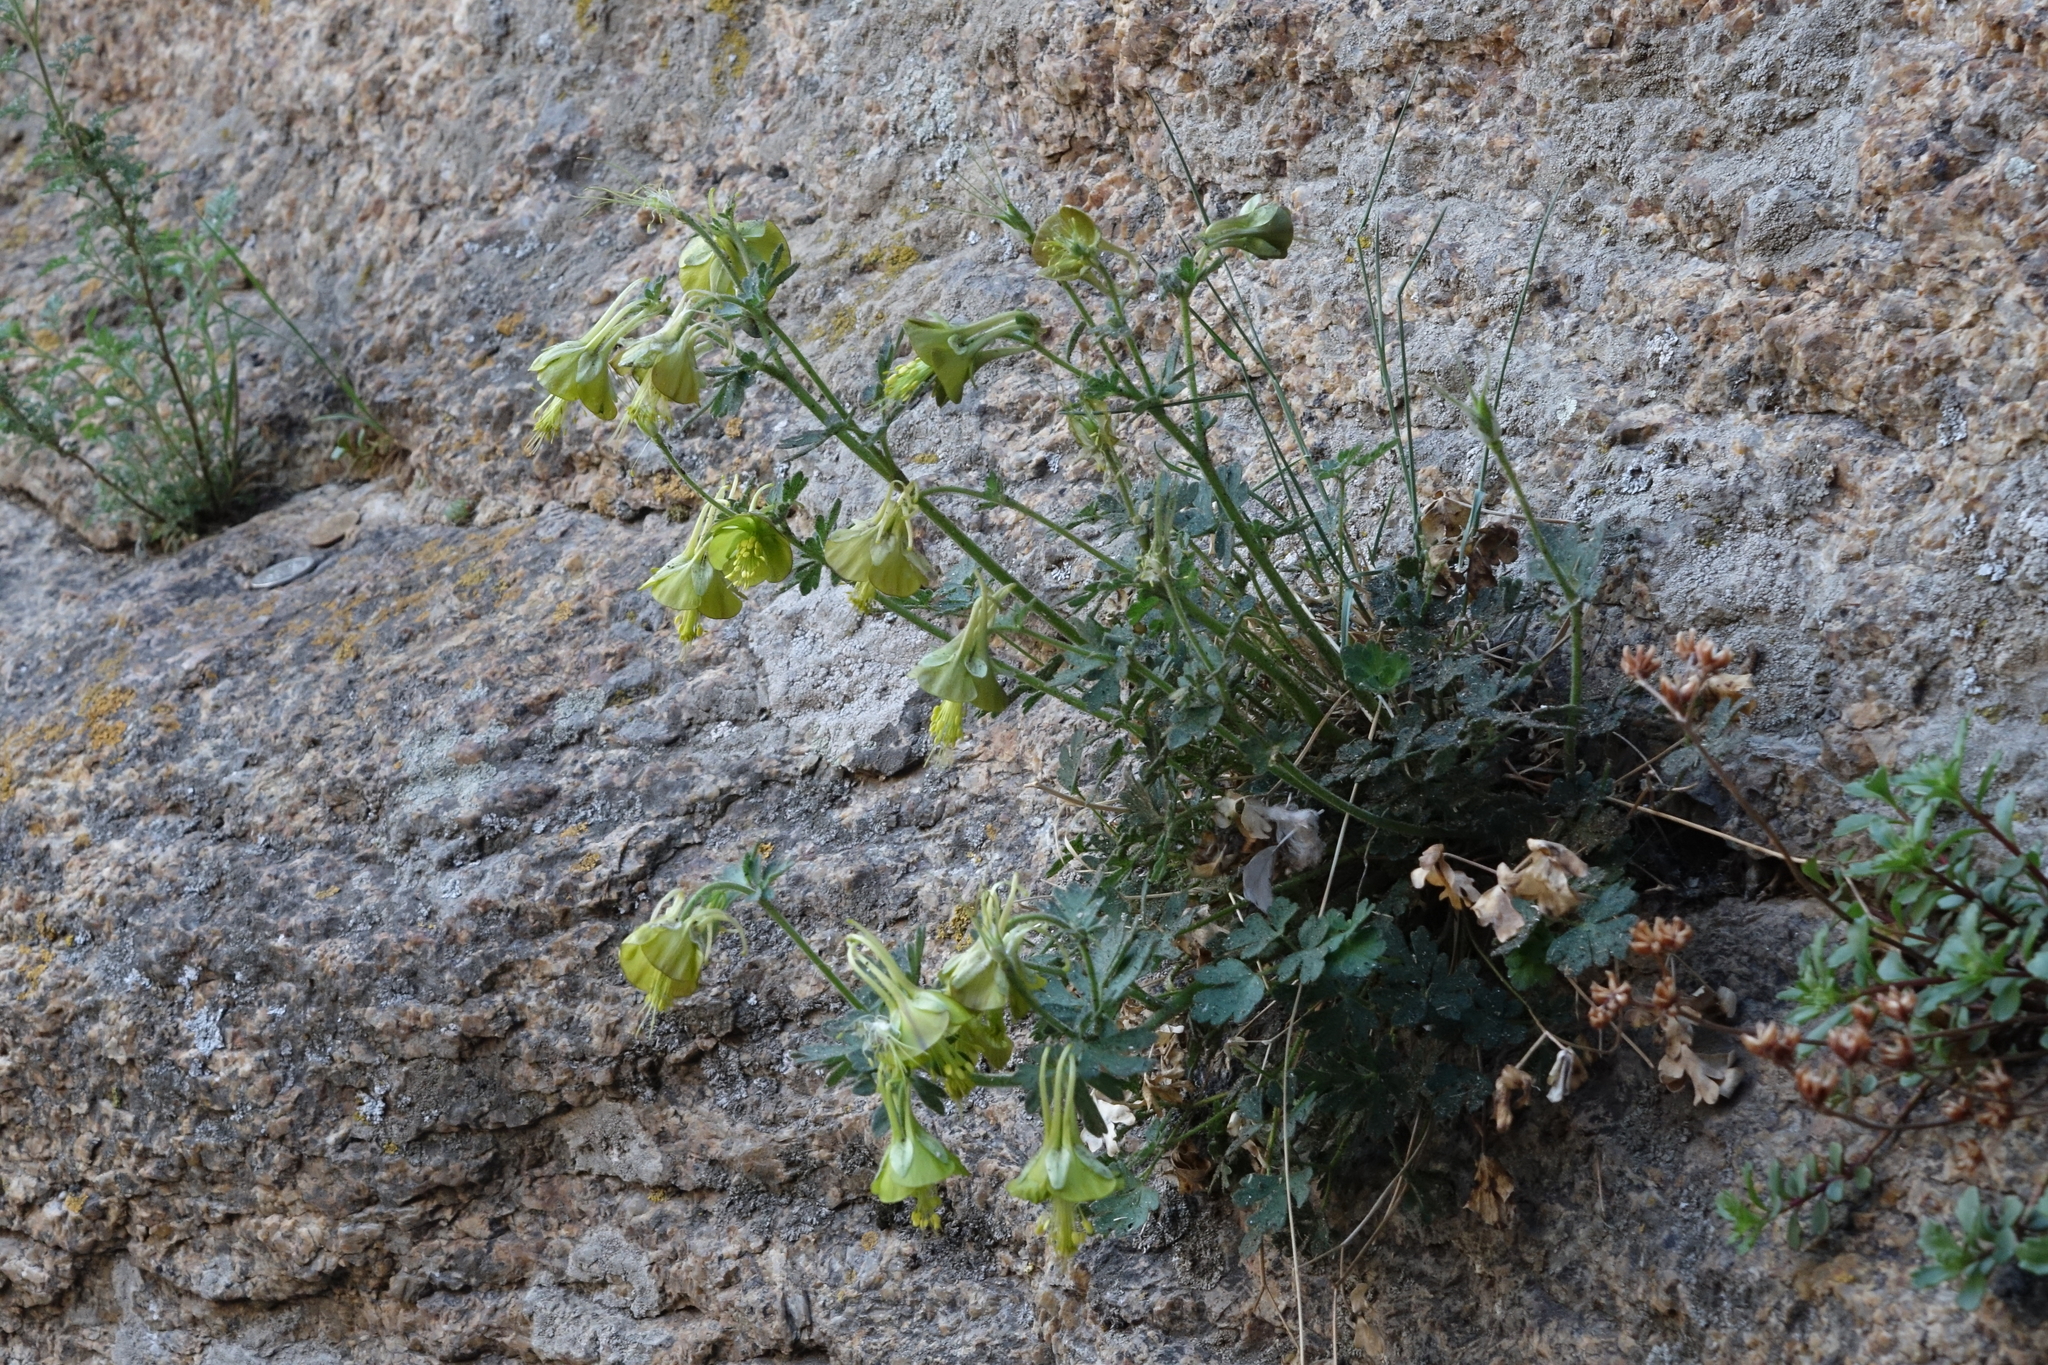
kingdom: Plantae
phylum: Tracheophyta
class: Magnoliopsida
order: Ranunculales
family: Ranunculaceae
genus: Aquilegia
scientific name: Aquilegia viridiflora
